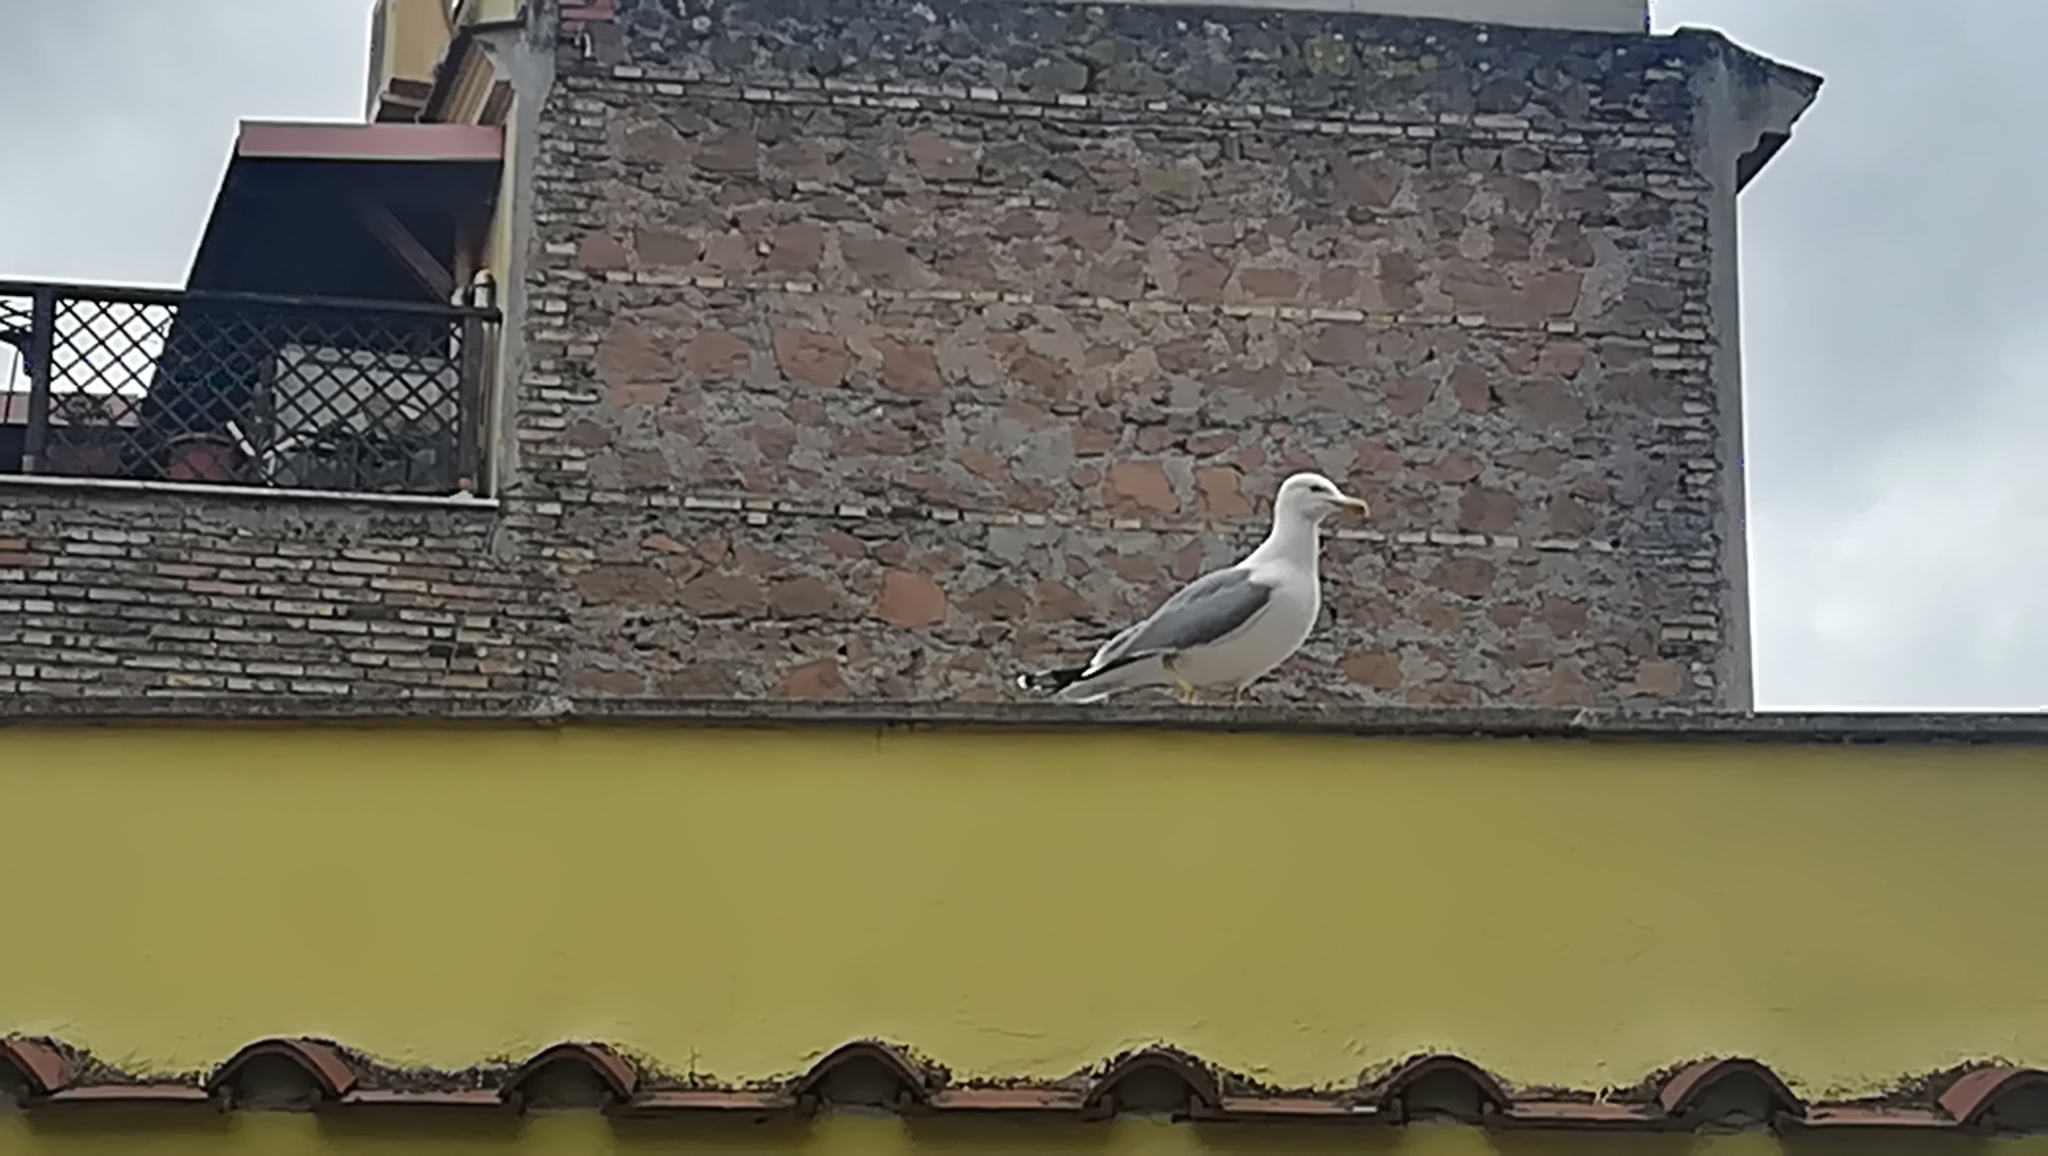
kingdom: Animalia
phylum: Chordata
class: Aves
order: Charadriiformes
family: Laridae
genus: Larus
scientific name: Larus michahellis
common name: Yellow-legged gull
